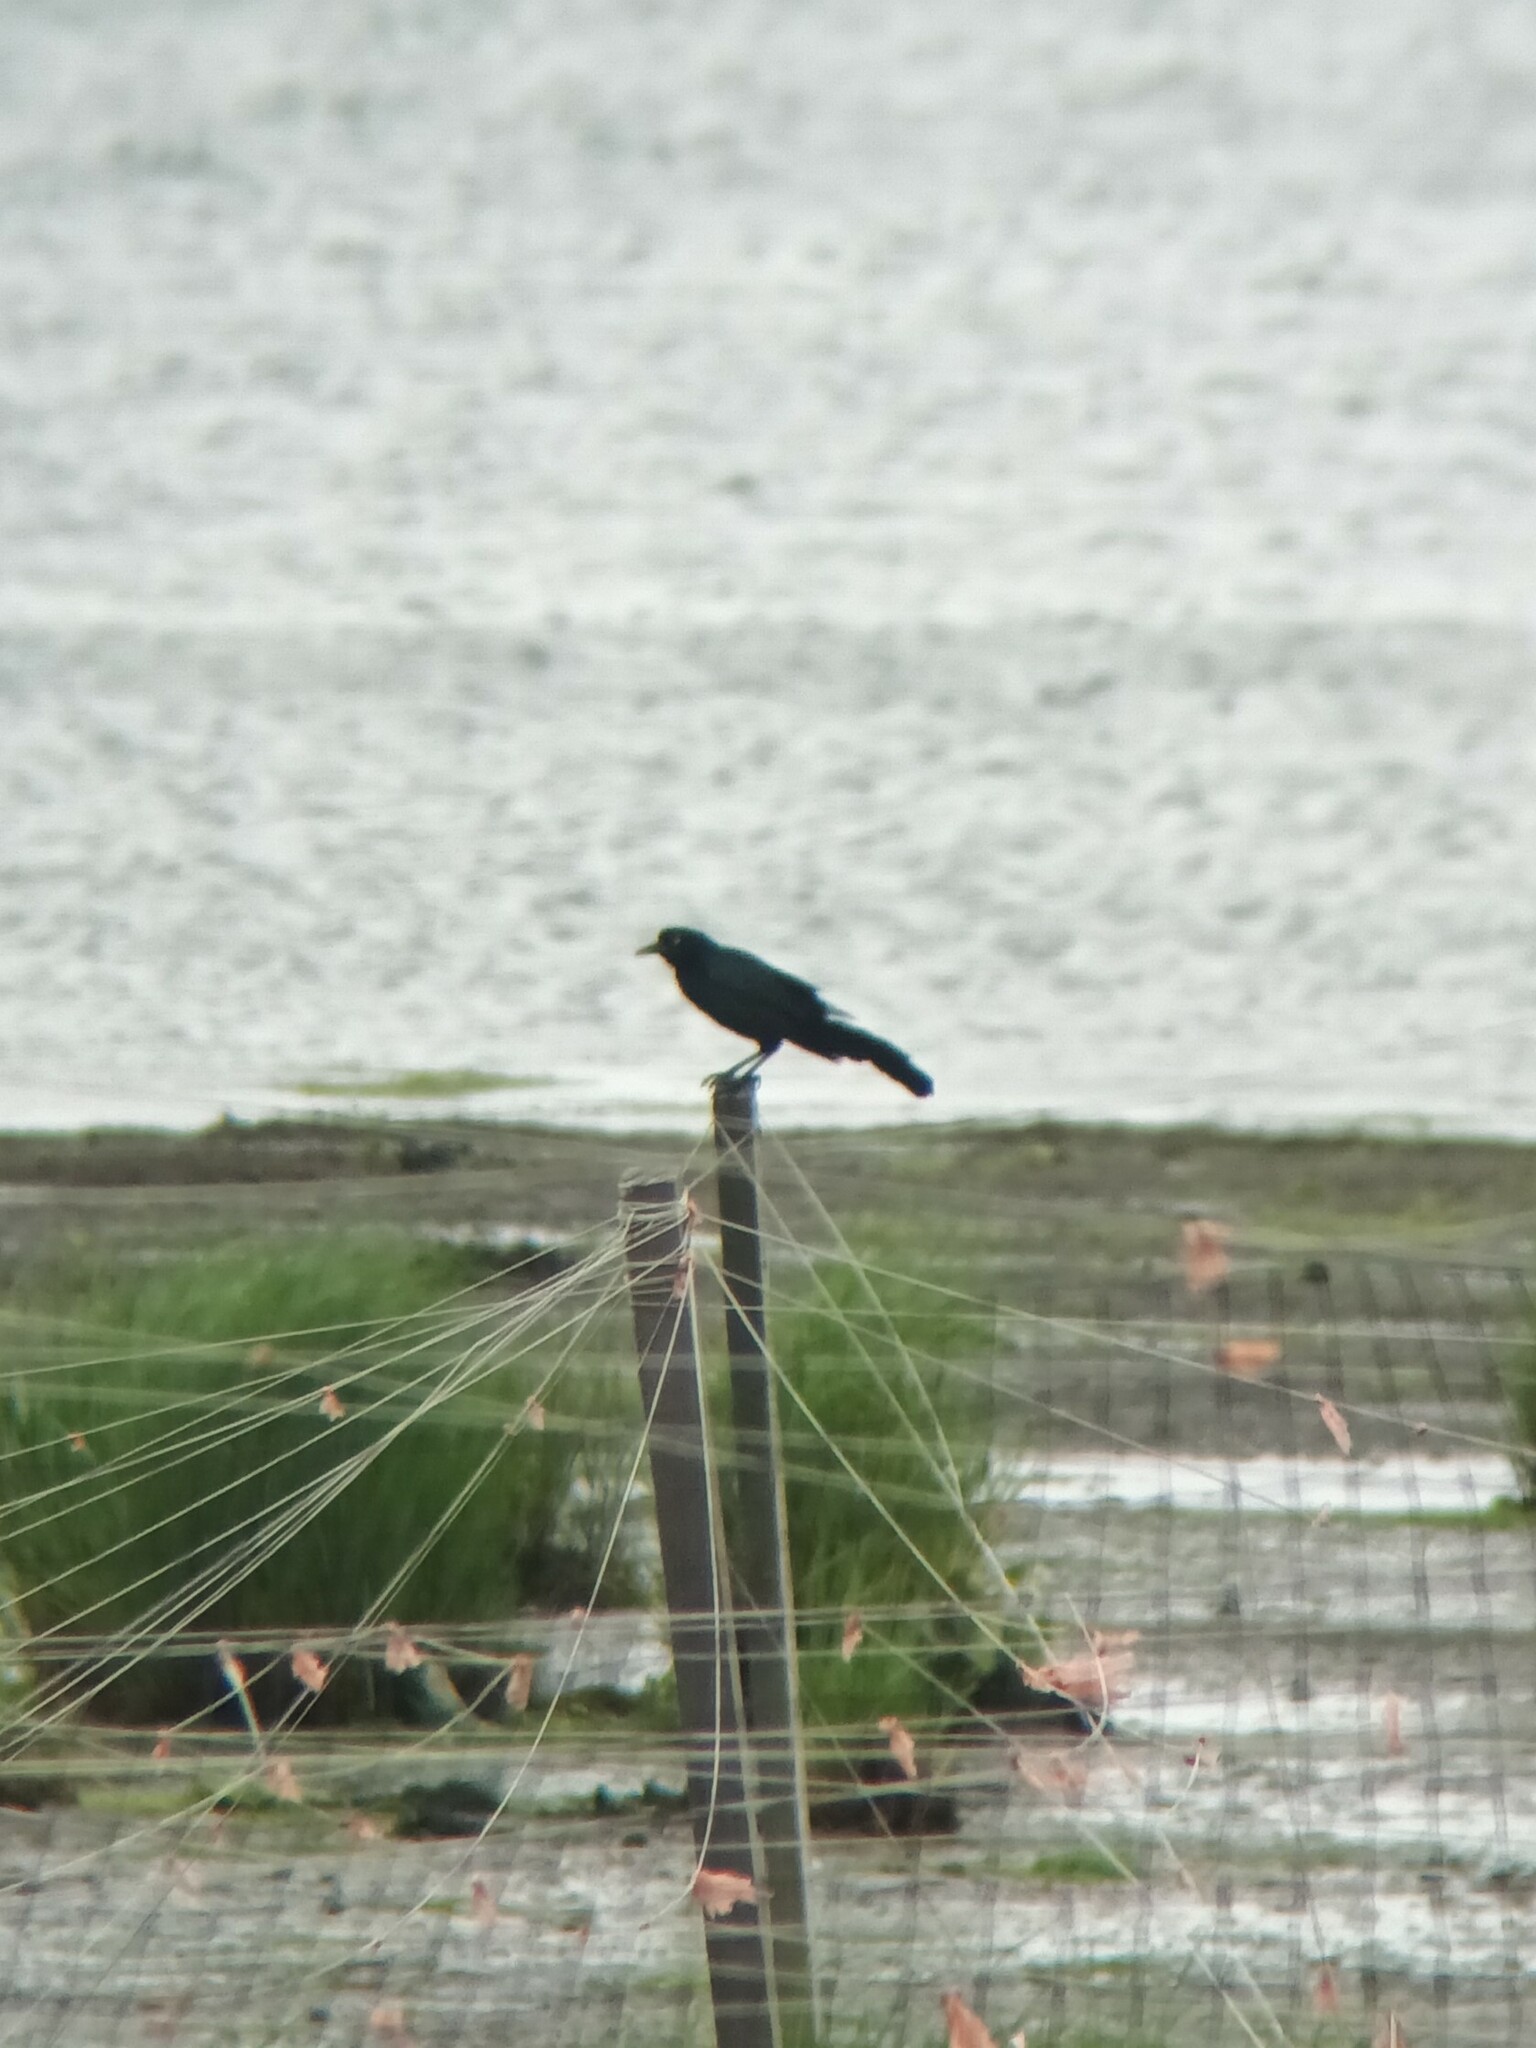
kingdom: Animalia
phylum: Chordata
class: Aves
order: Passeriformes
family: Icteridae
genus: Quiscalus
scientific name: Quiscalus major
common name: Boat-tailed grackle
